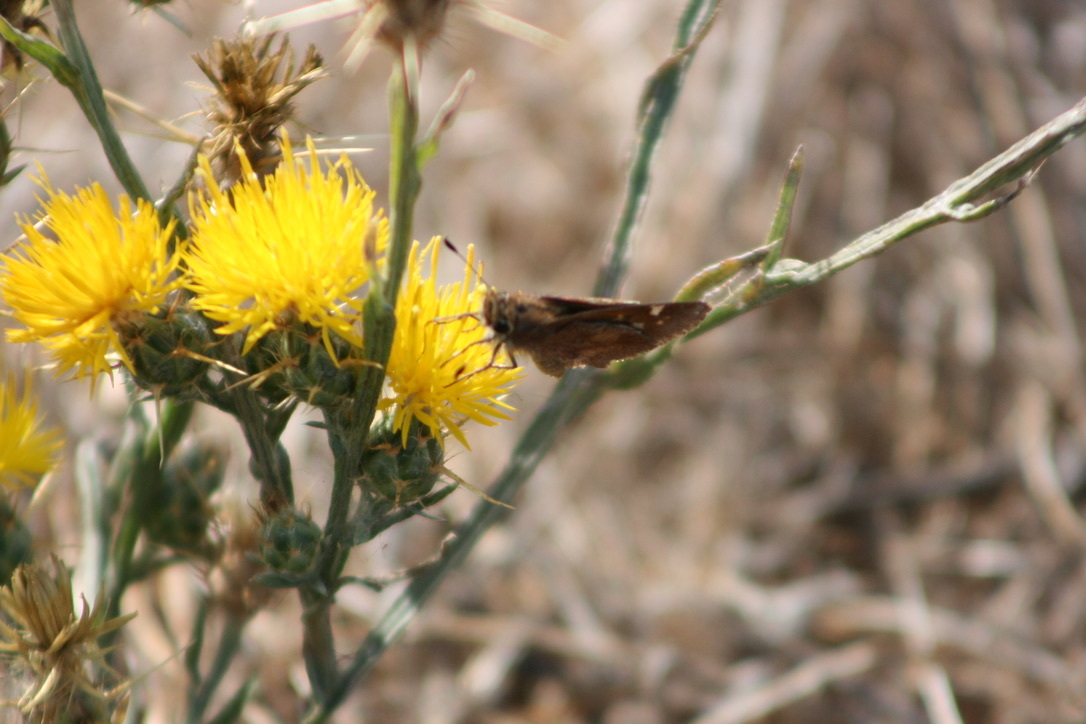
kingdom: Animalia
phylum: Arthropoda
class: Insecta
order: Lepidoptera
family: Hesperiidae
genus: Lon
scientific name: Lon melane
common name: Umber skipper
